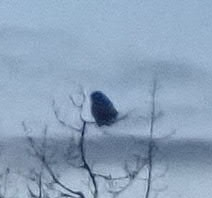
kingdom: Animalia
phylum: Chordata
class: Aves
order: Strigiformes
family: Strigidae
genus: Bubo
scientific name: Bubo scandiacus
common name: Snowy owl
